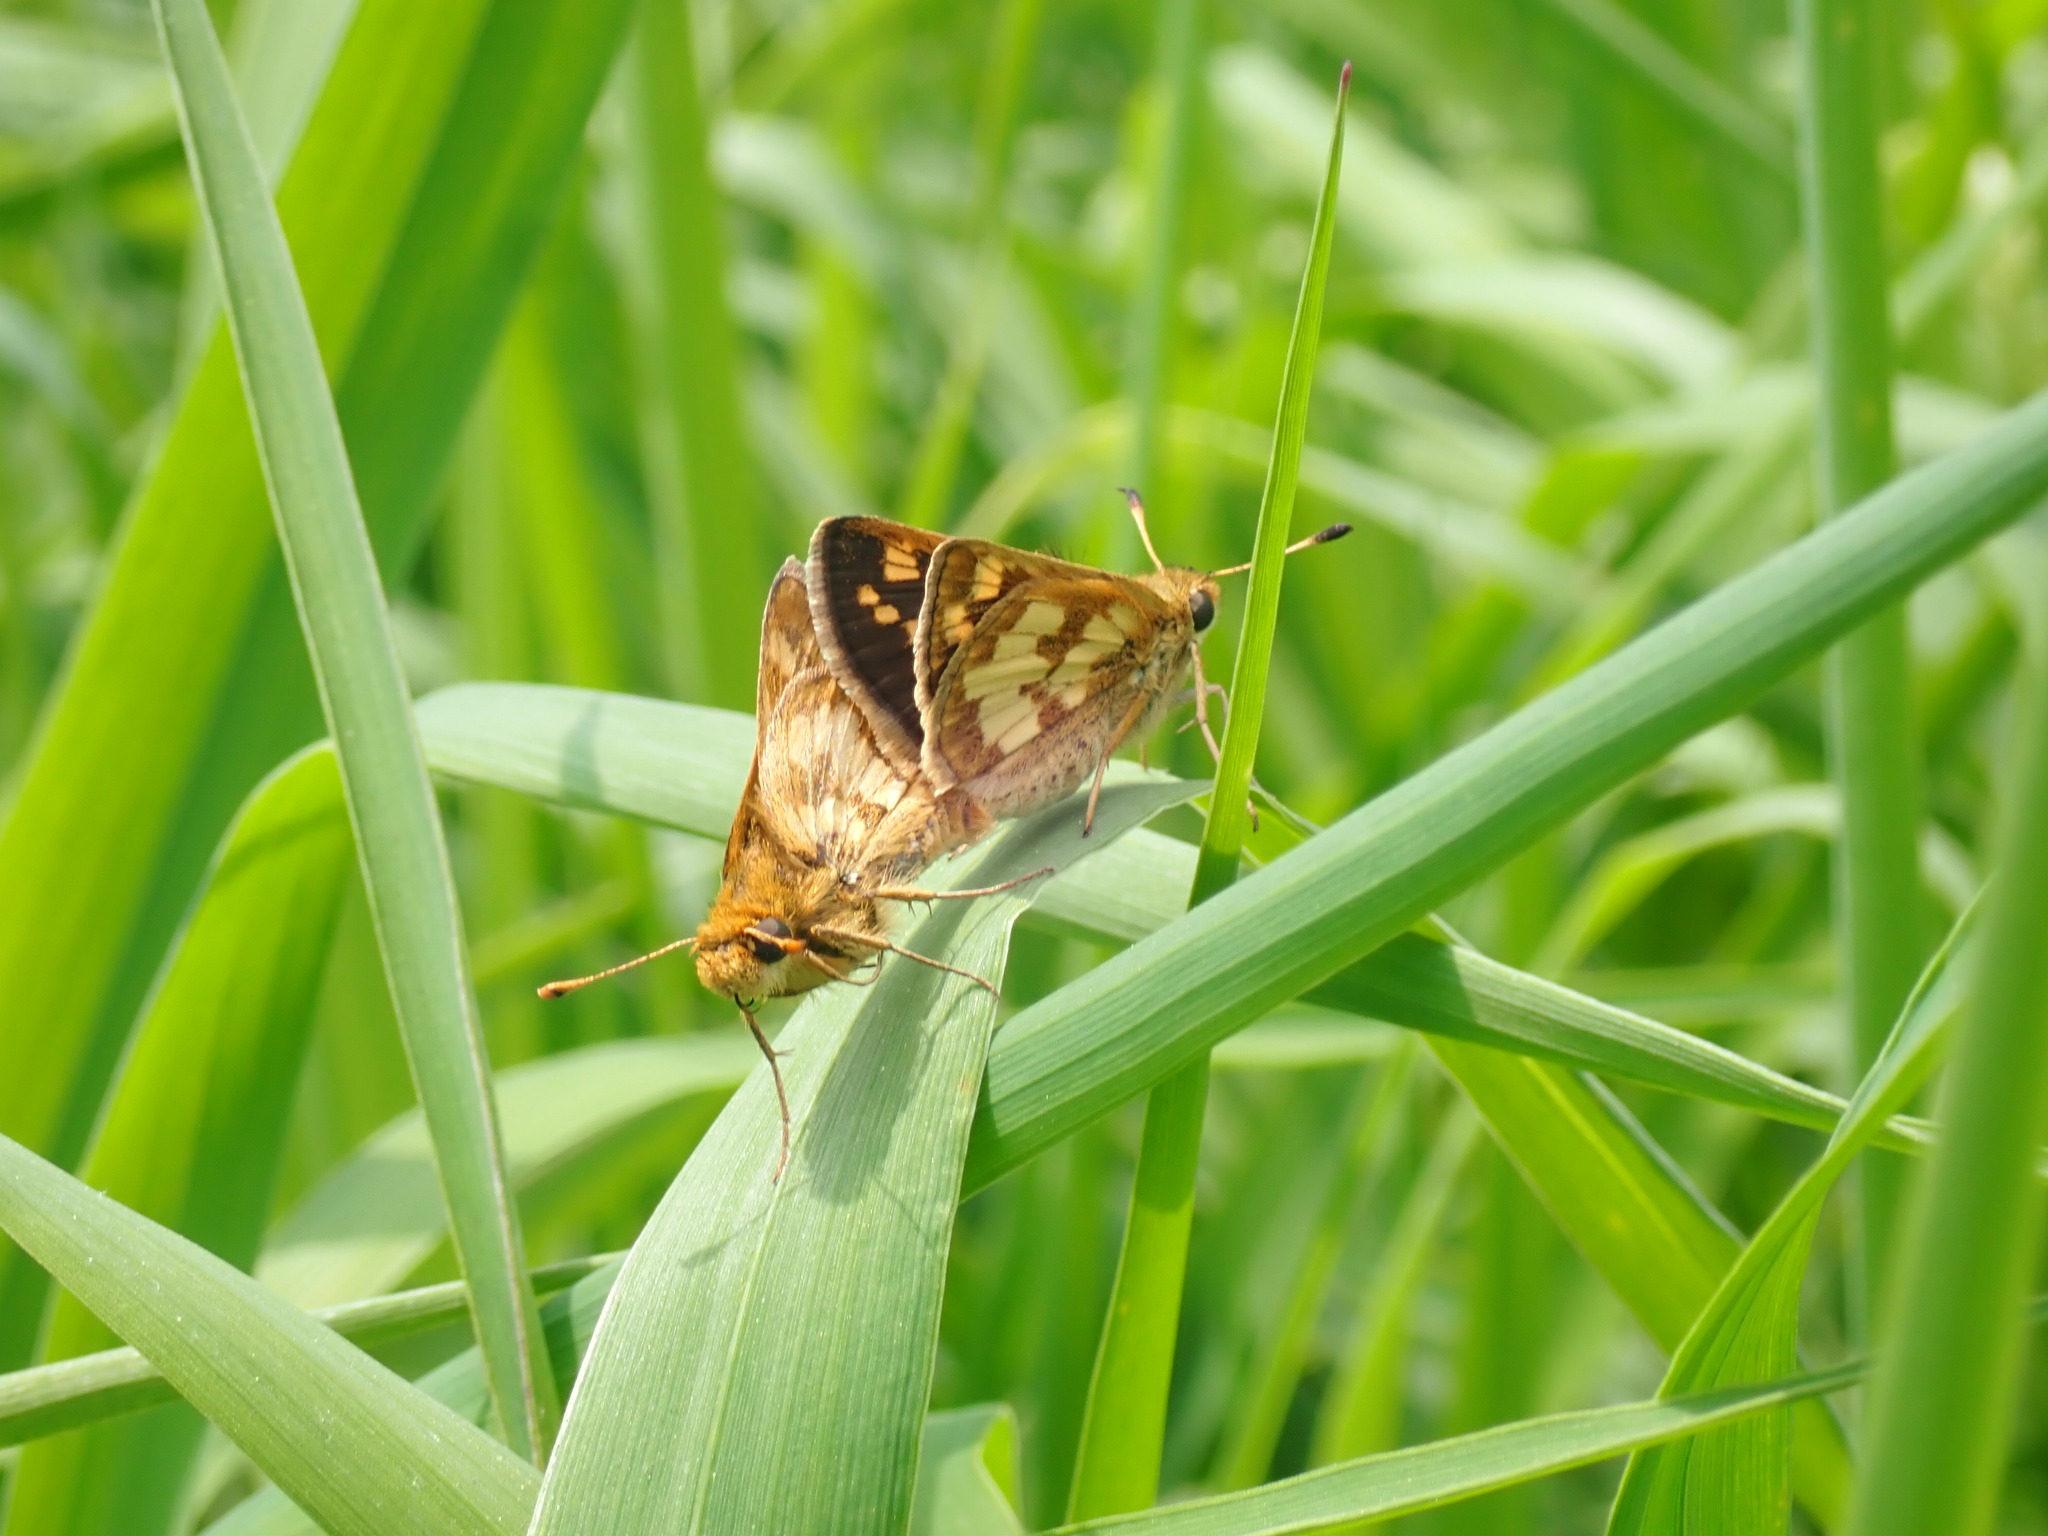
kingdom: Animalia
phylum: Arthropoda
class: Insecta
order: Lepidoptera
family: Hesperiidae
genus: Polites
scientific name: Polites coras
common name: Peck's skipper
